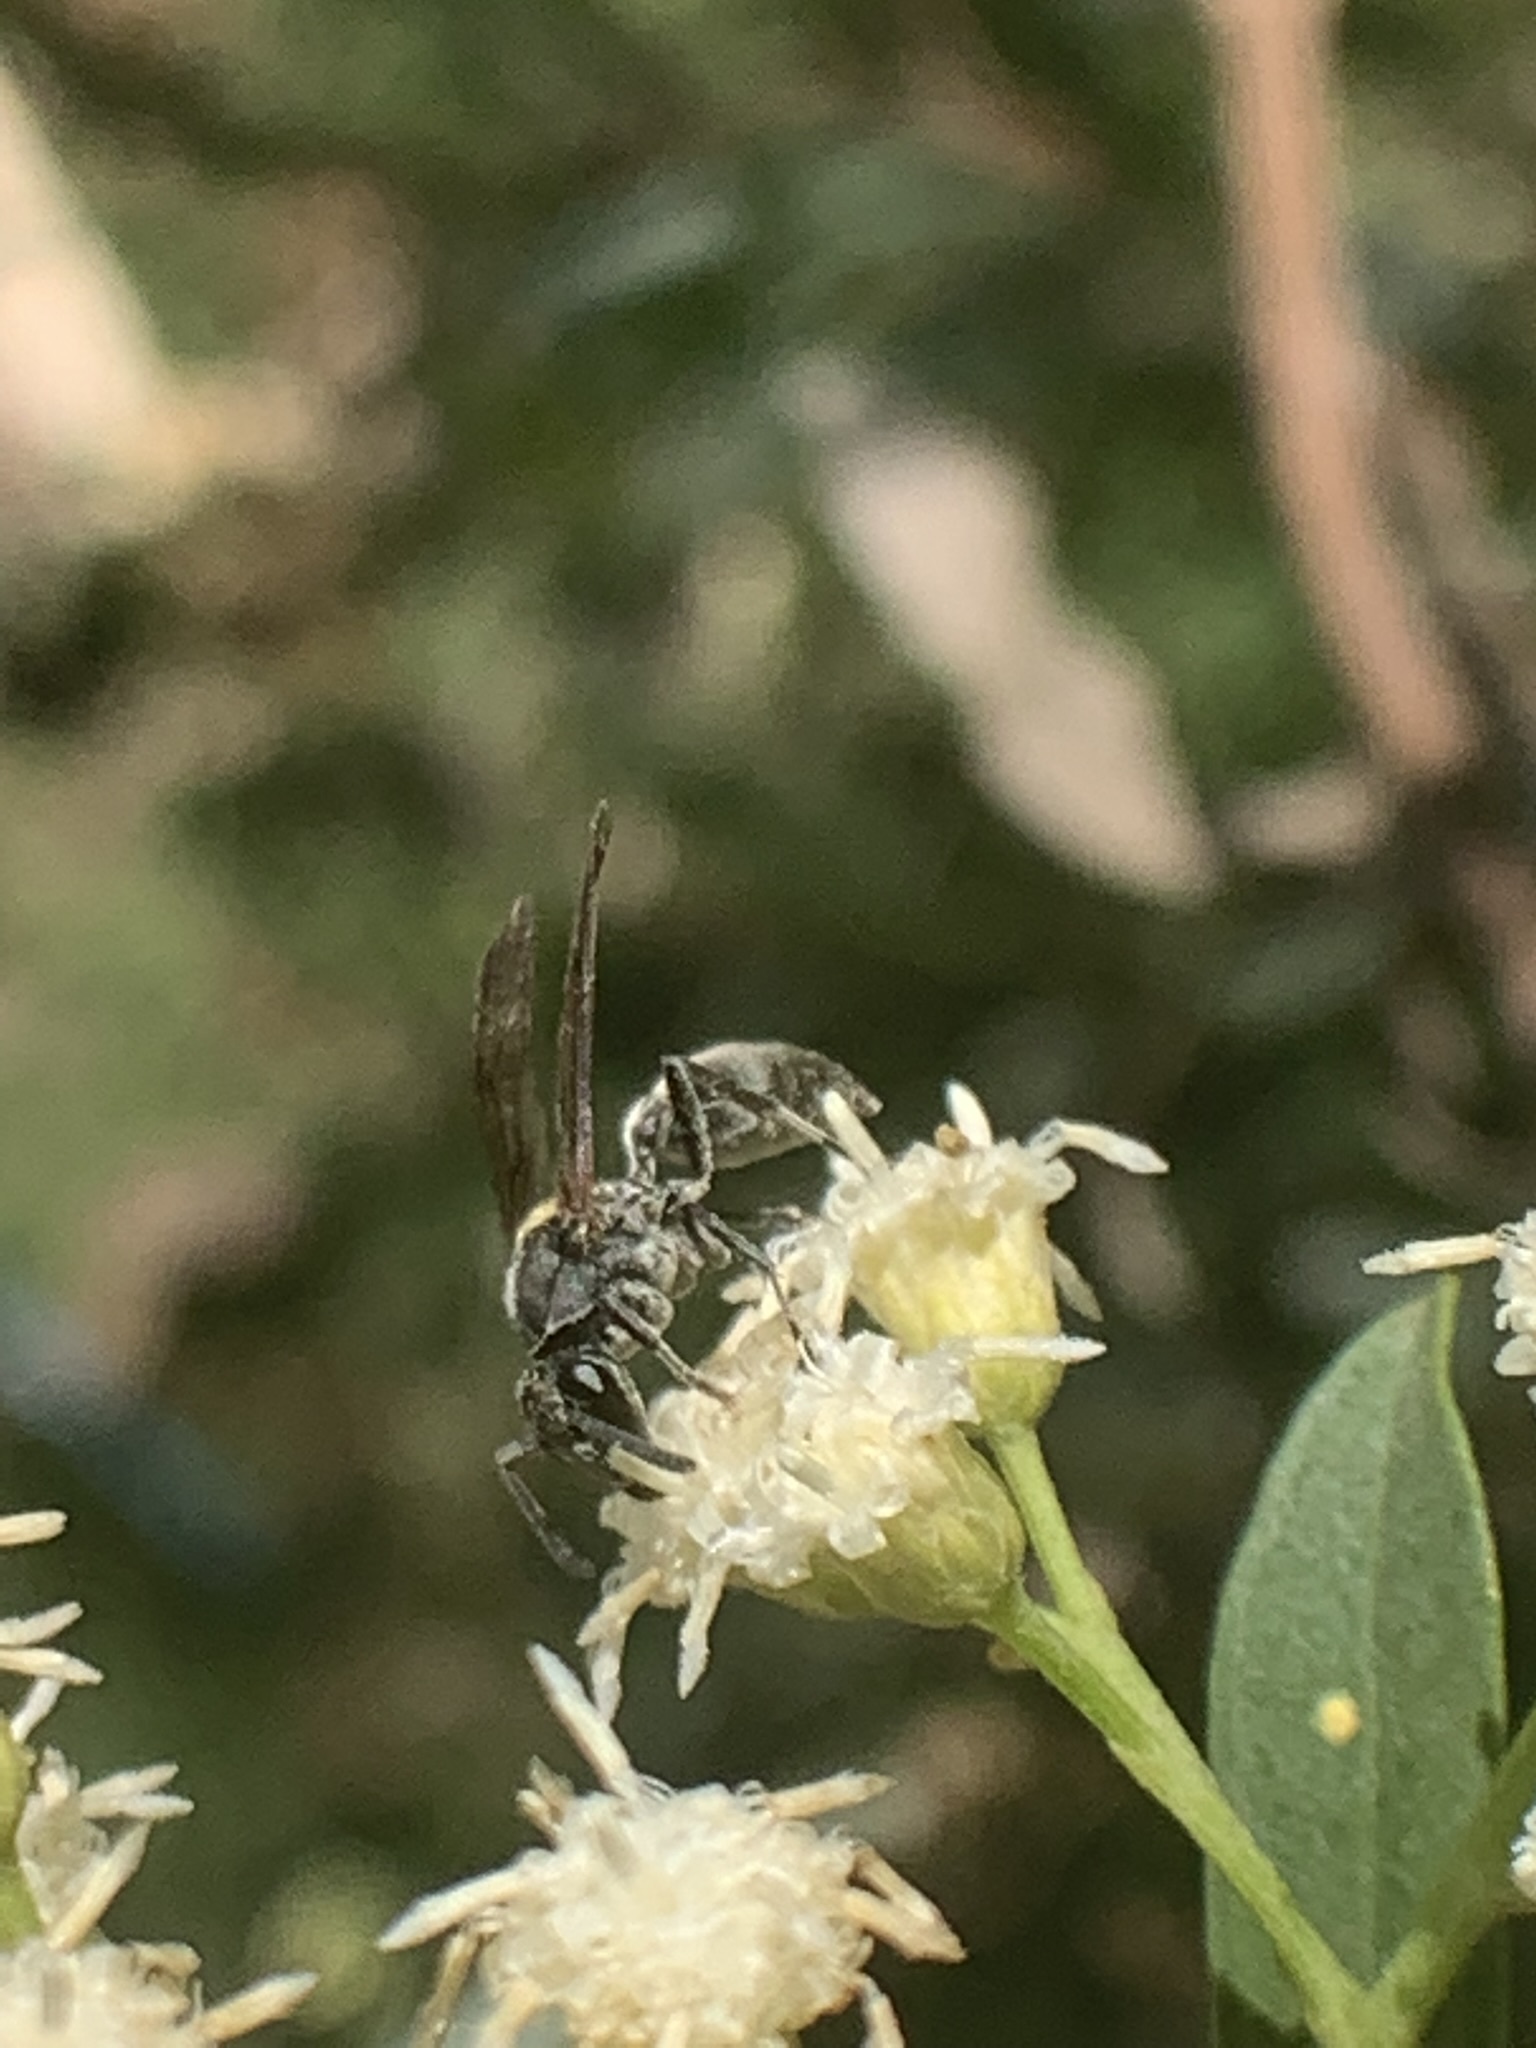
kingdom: Animalia
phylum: Arthropoda
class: Insecta
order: Hymenoptera
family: Eumenidae
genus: Polybia
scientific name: Polybia scutellaris
